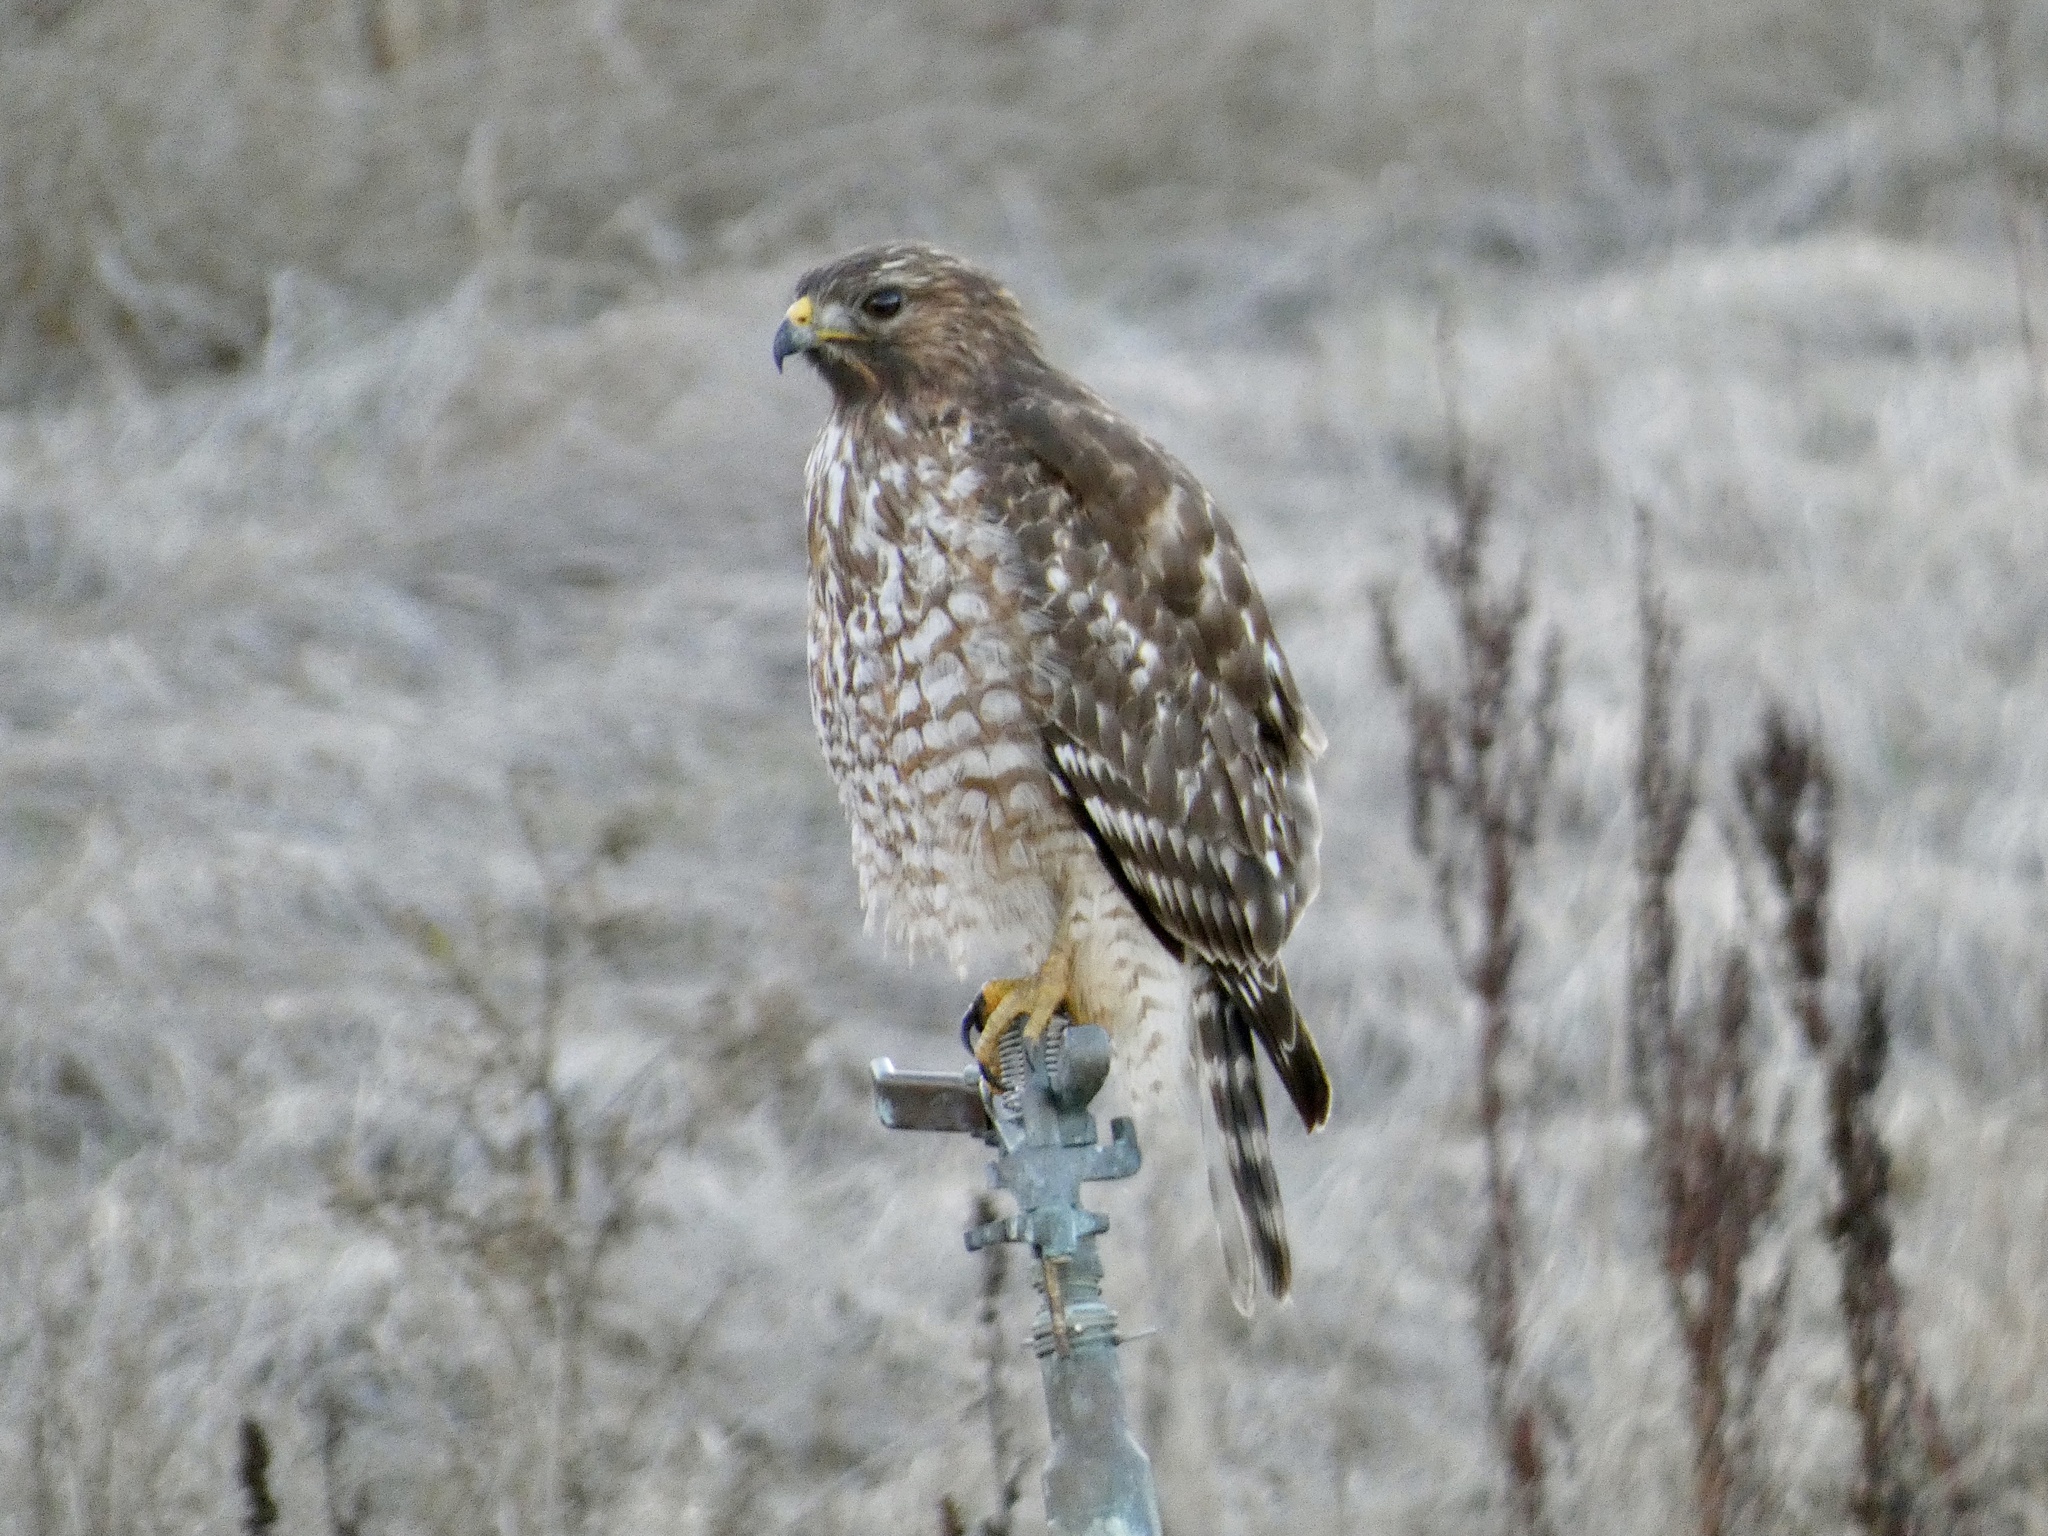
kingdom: Animalia
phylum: Chordata
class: Aves
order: Accipitriformes
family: Accipitridae
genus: Buteo
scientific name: Buteo lineatus
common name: Red-shouldered hawk
